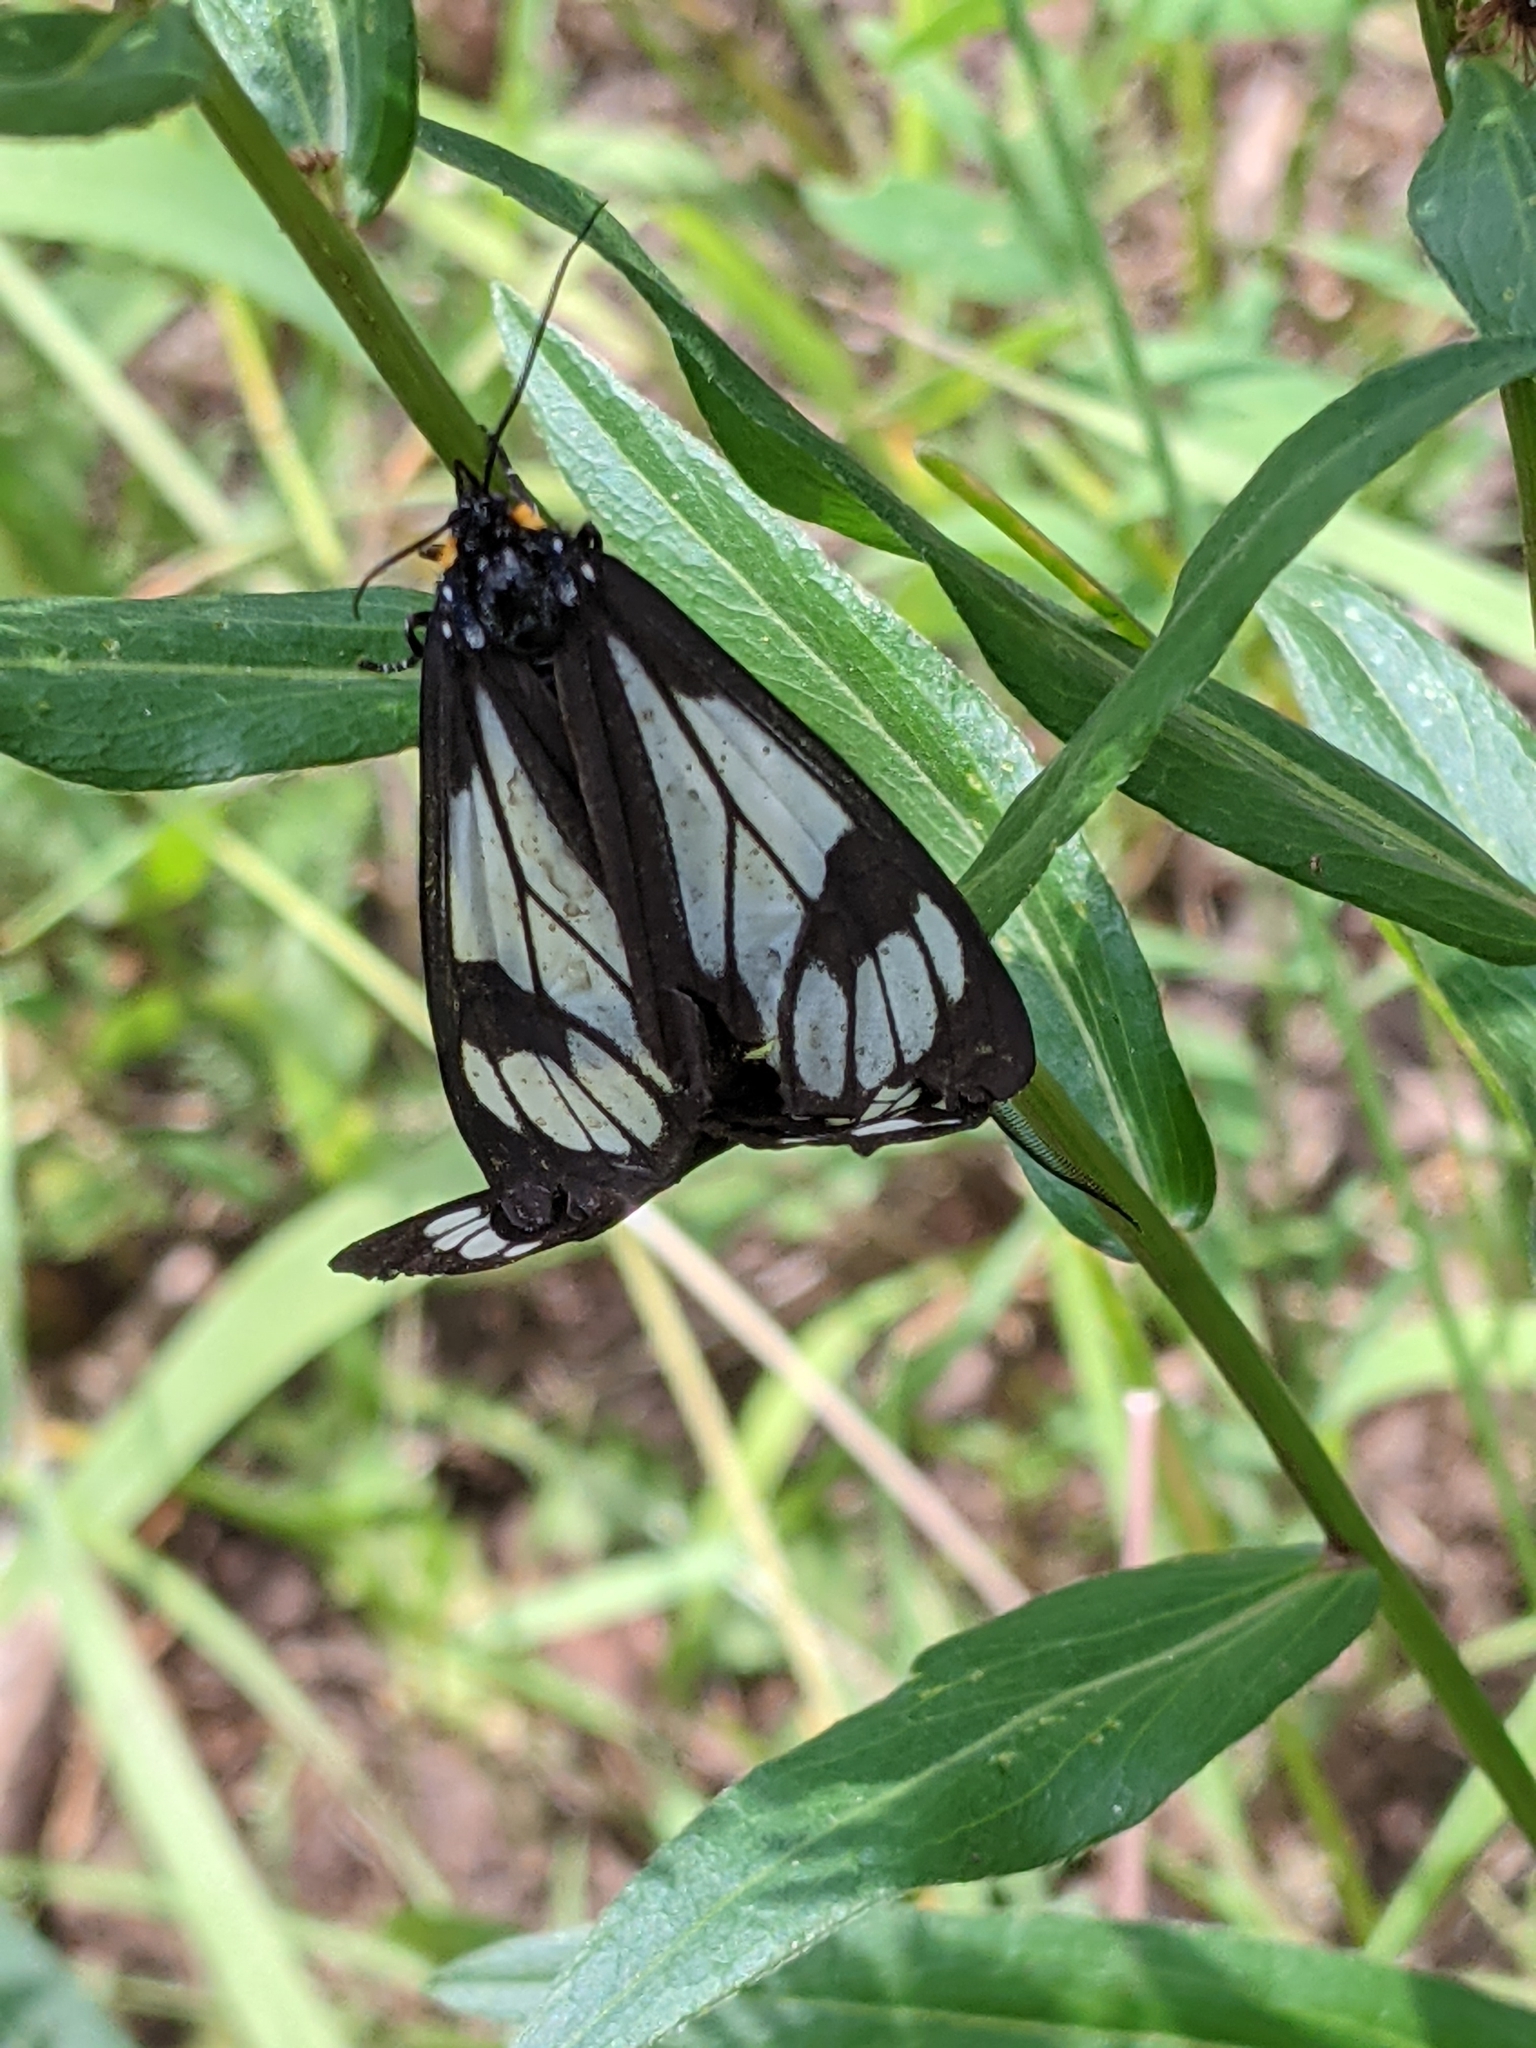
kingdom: Animalia
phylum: Arthropoda
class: Insecta
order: Lepidoptera
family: Erebidae
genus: Gnophaela
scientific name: Gnophaela vermiculata
